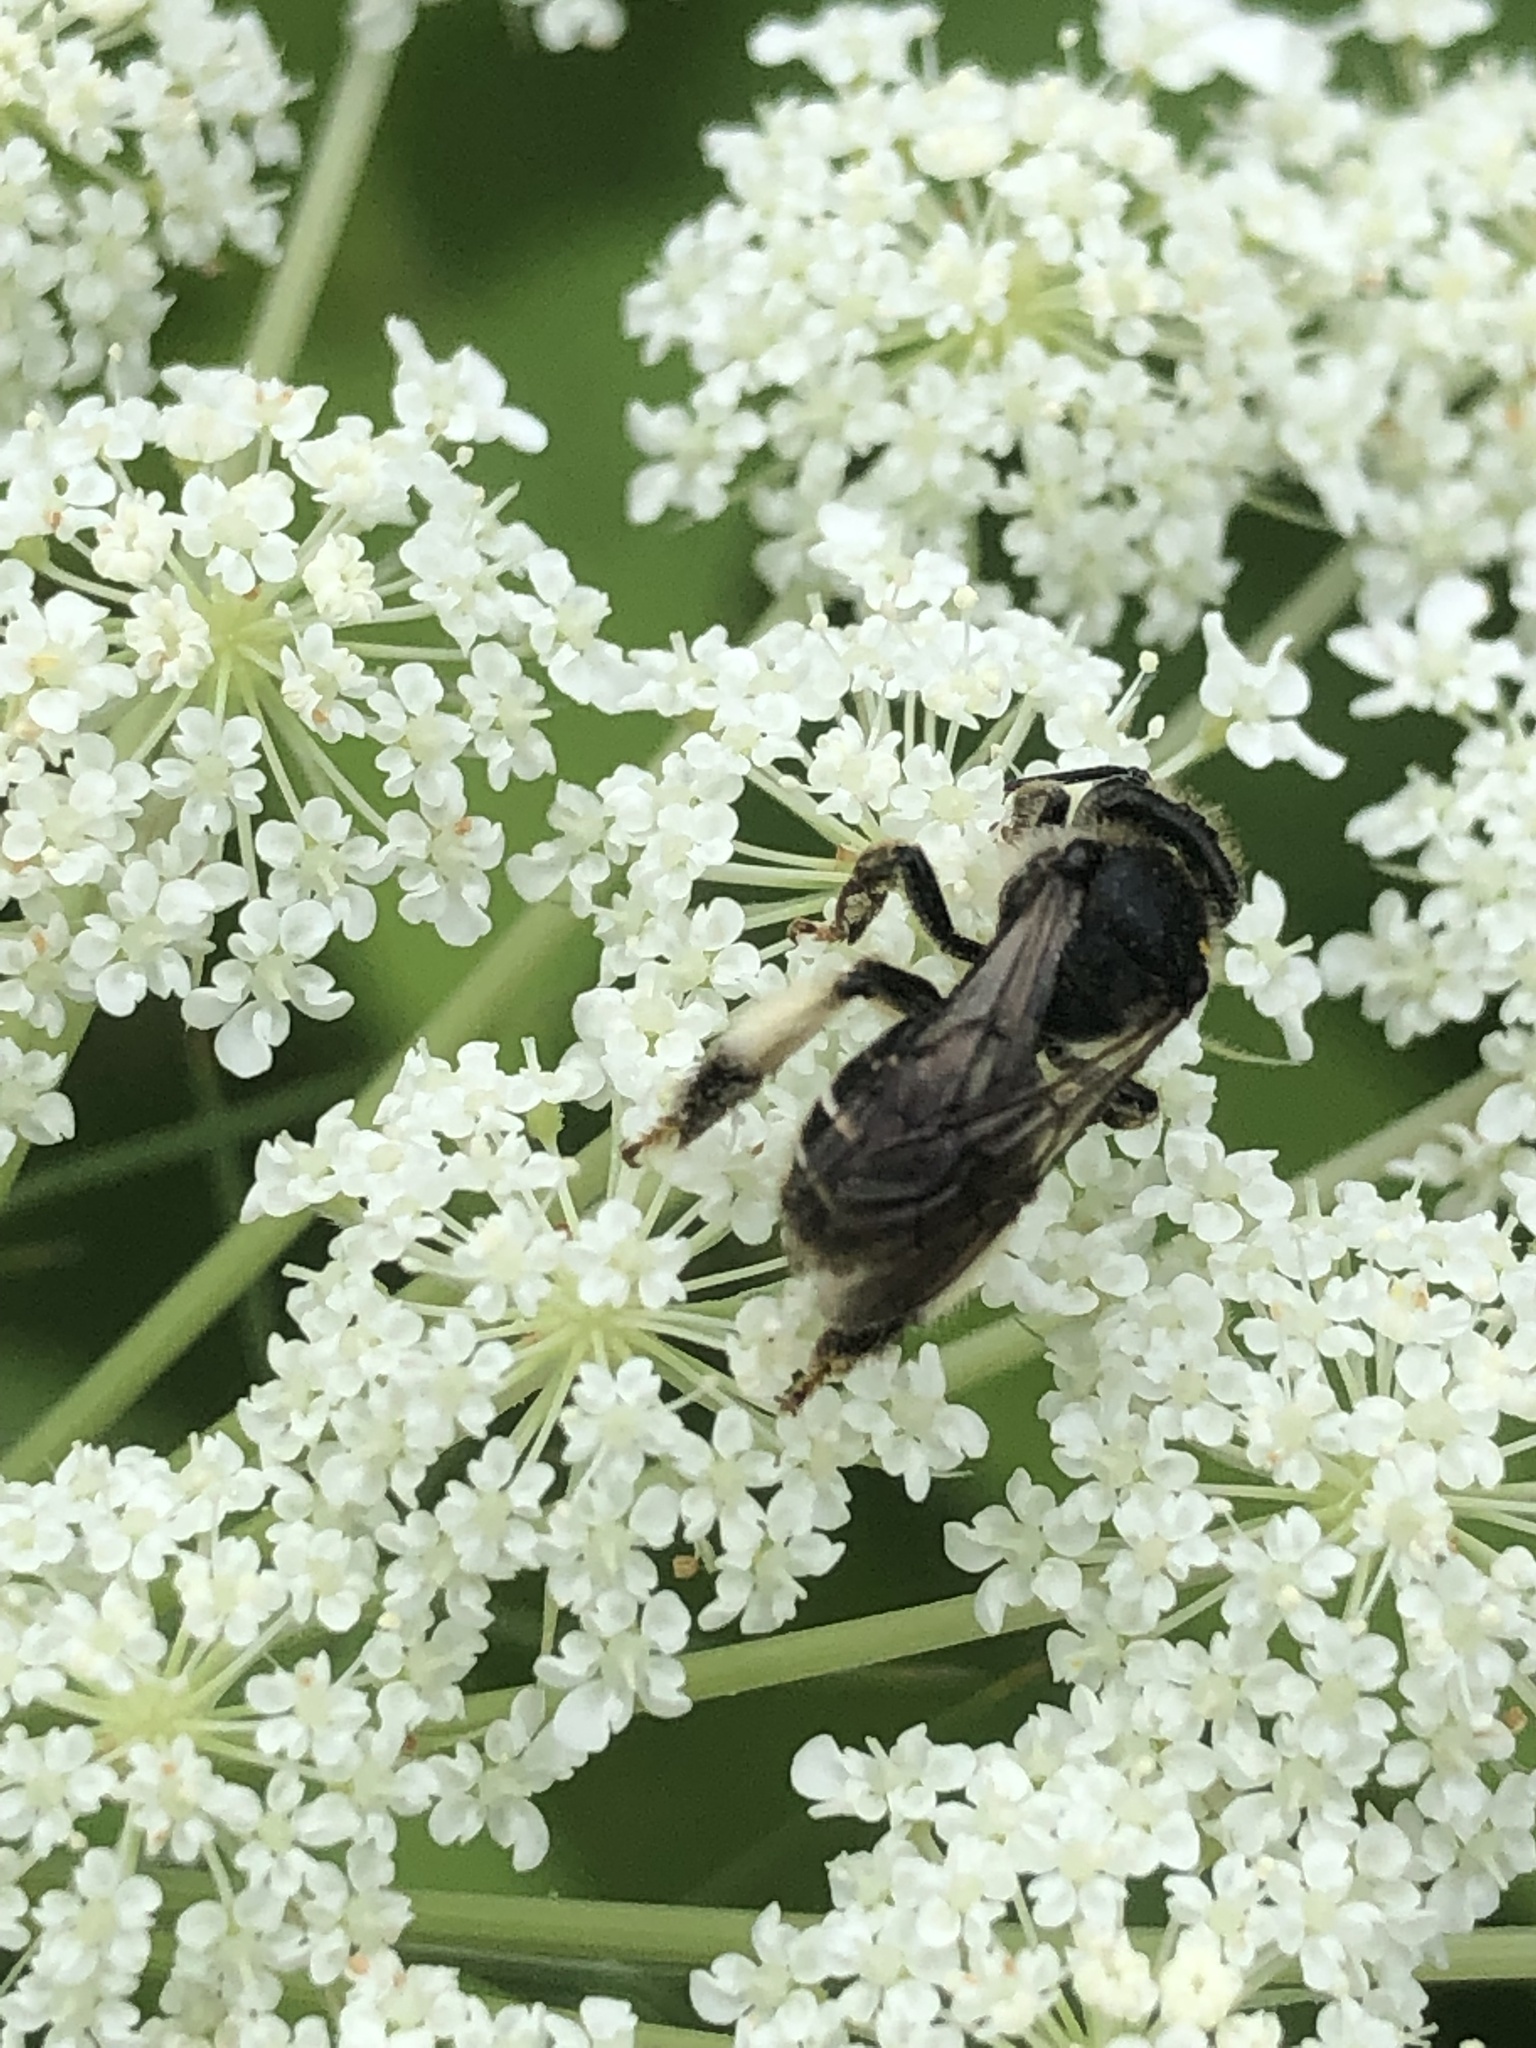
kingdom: Animalia
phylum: Arthropoda
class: Insecta
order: Hymenoptera
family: Melittidae
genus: Macropis
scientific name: Macropis europaea
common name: Yellow loosestrife bee
